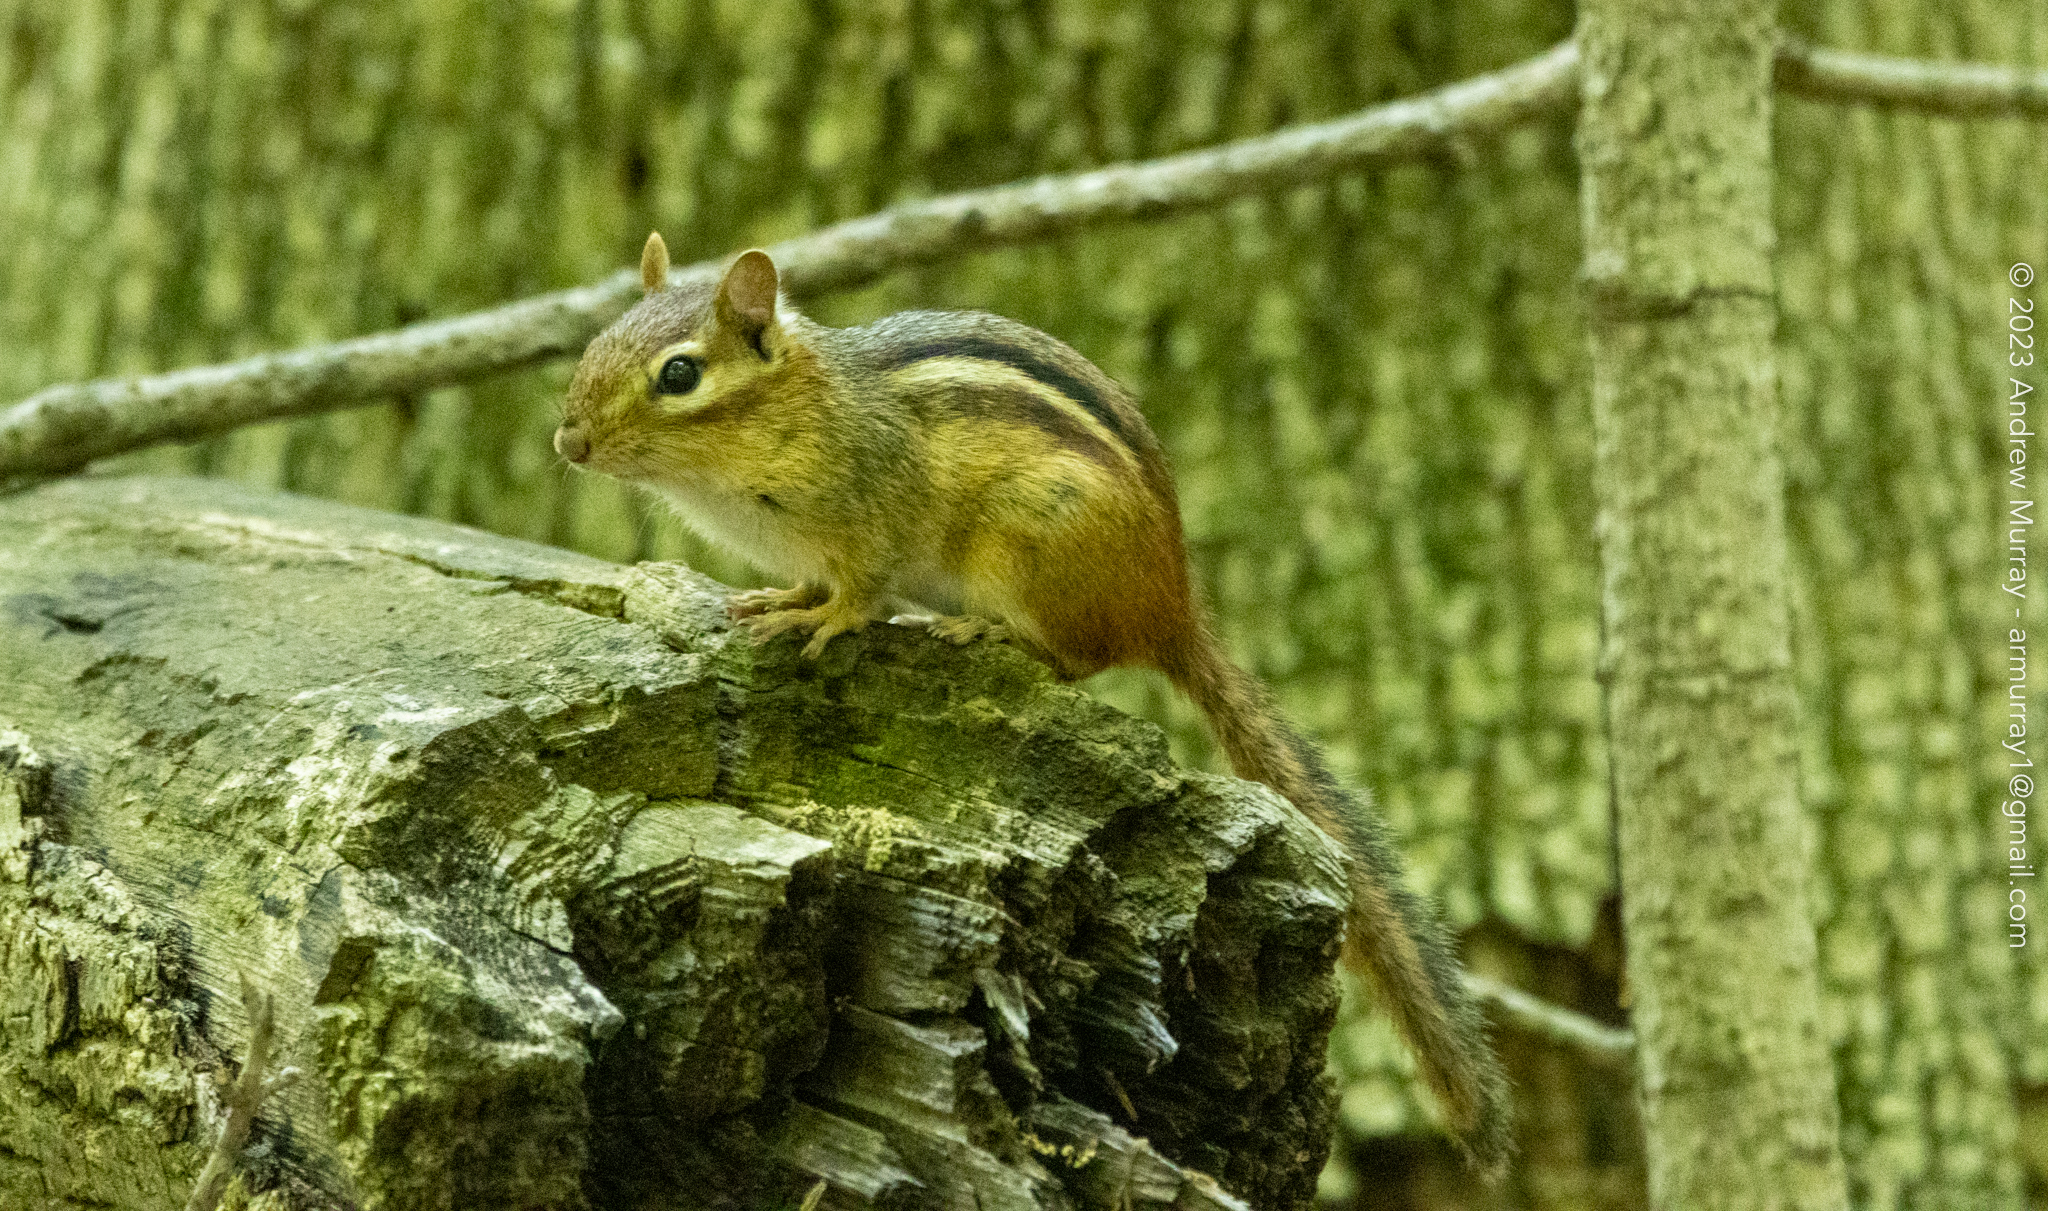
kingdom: Animalia
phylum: Chordata
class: Mammalia
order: Rodentia
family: Sciuridae
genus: Tamias
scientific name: Tamias striatus
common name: Eastern chipmunk
